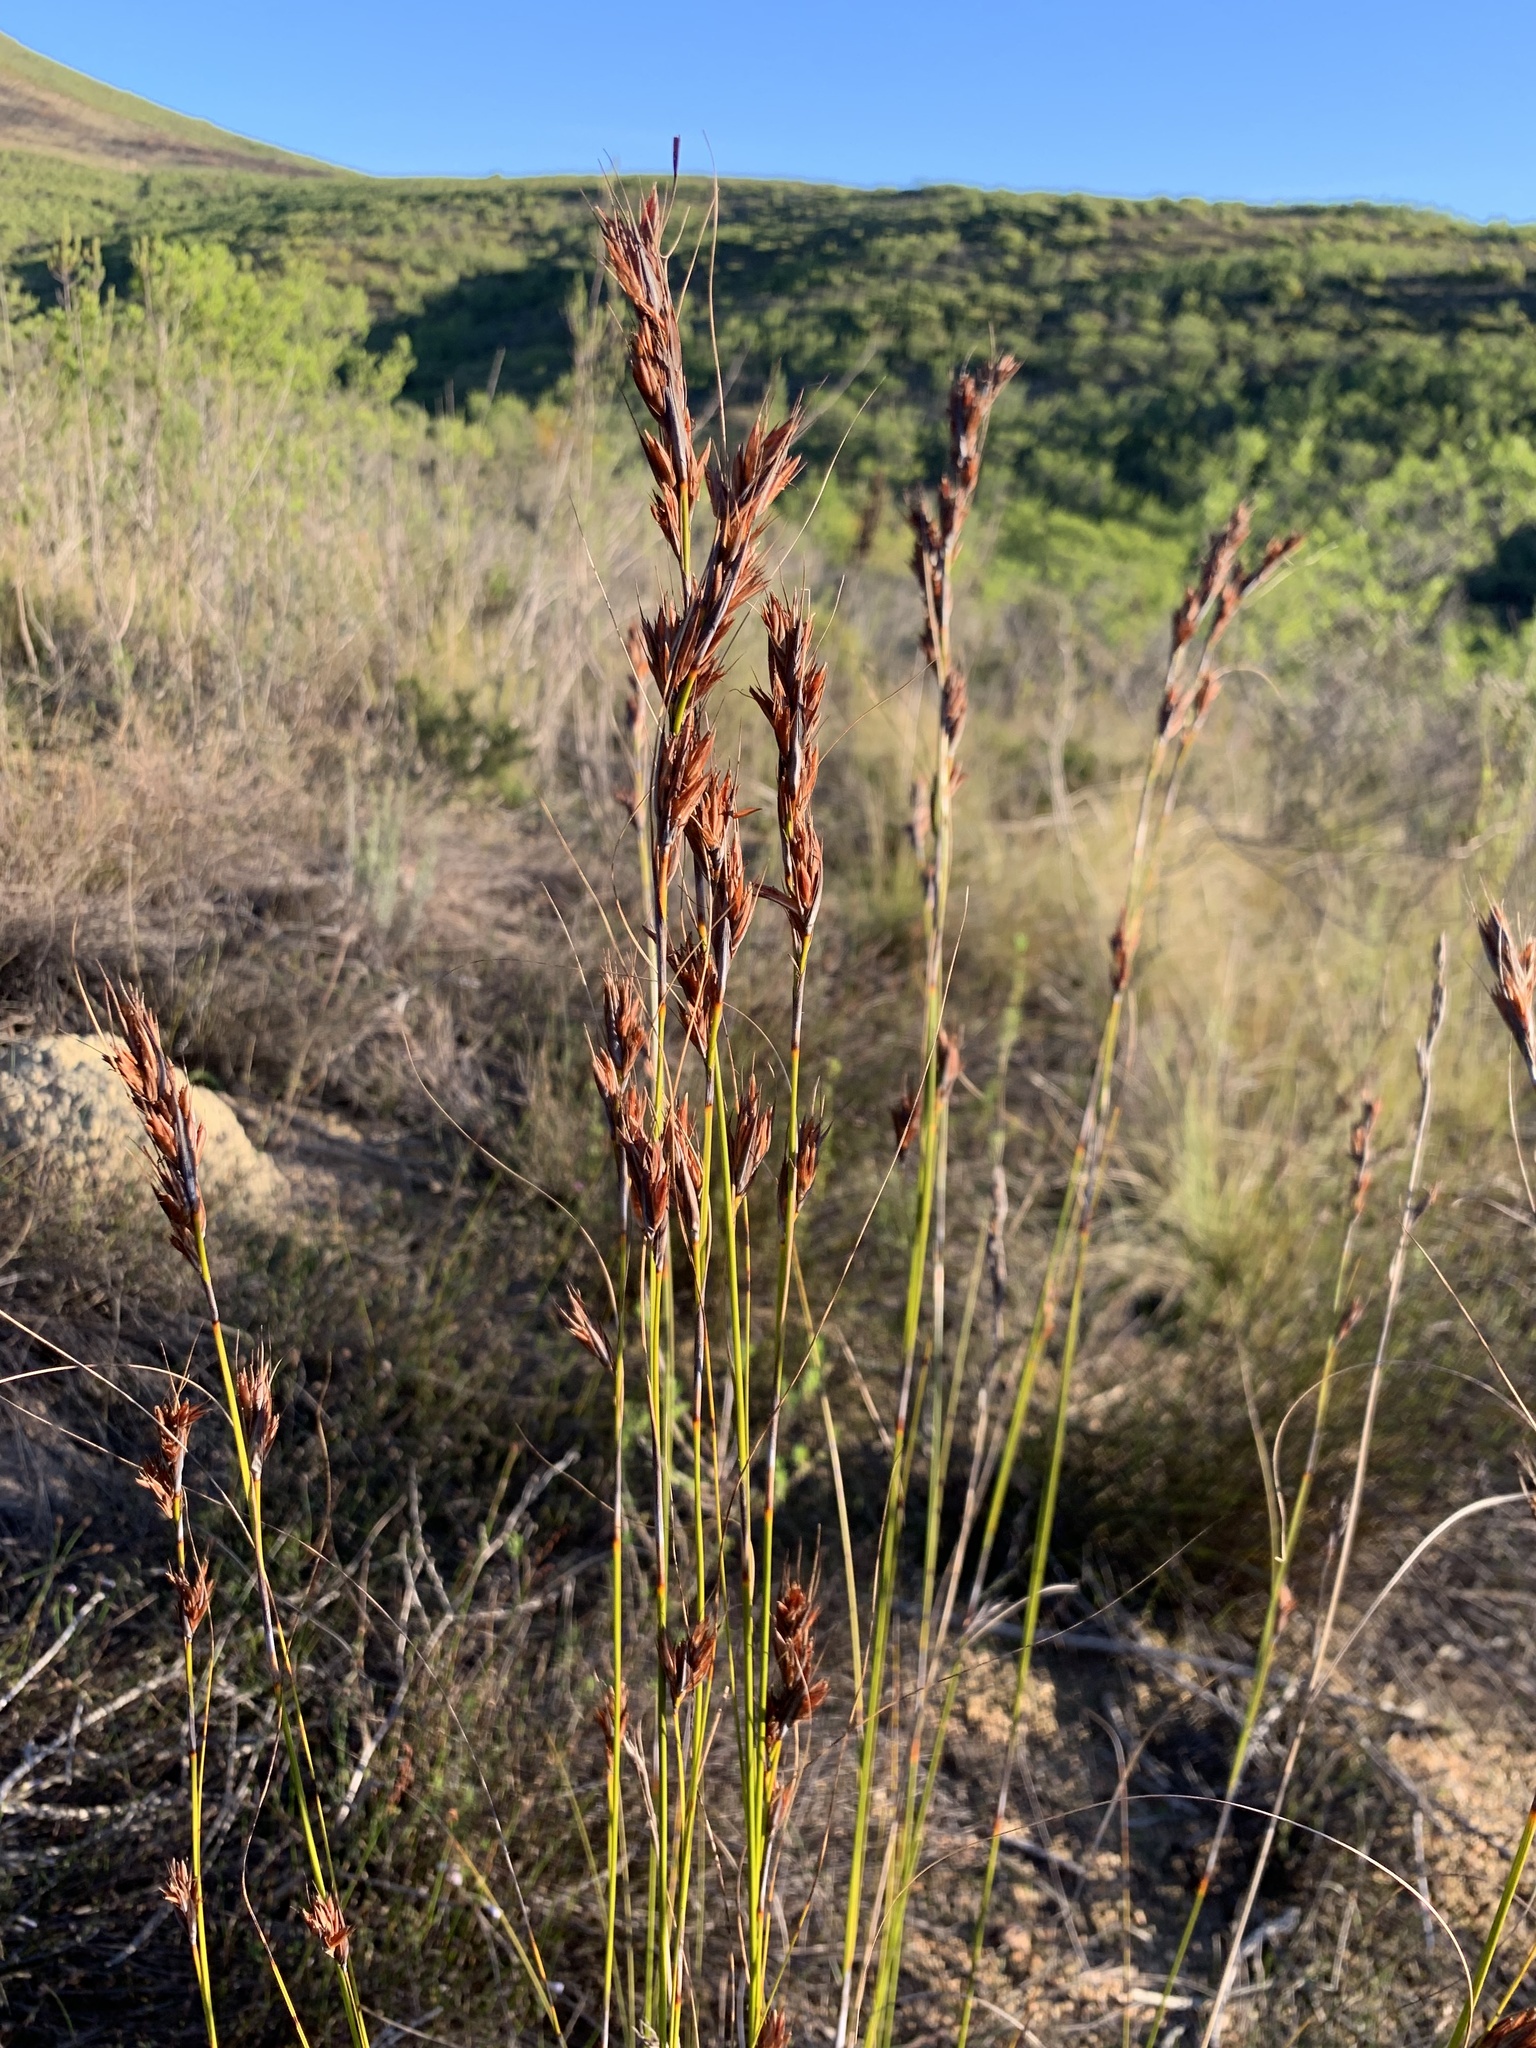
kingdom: Plantae
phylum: Tracheophyta
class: Liliopsida
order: Poales
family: Cyperaceae
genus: Tetraria
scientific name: Tetraria ustulata
